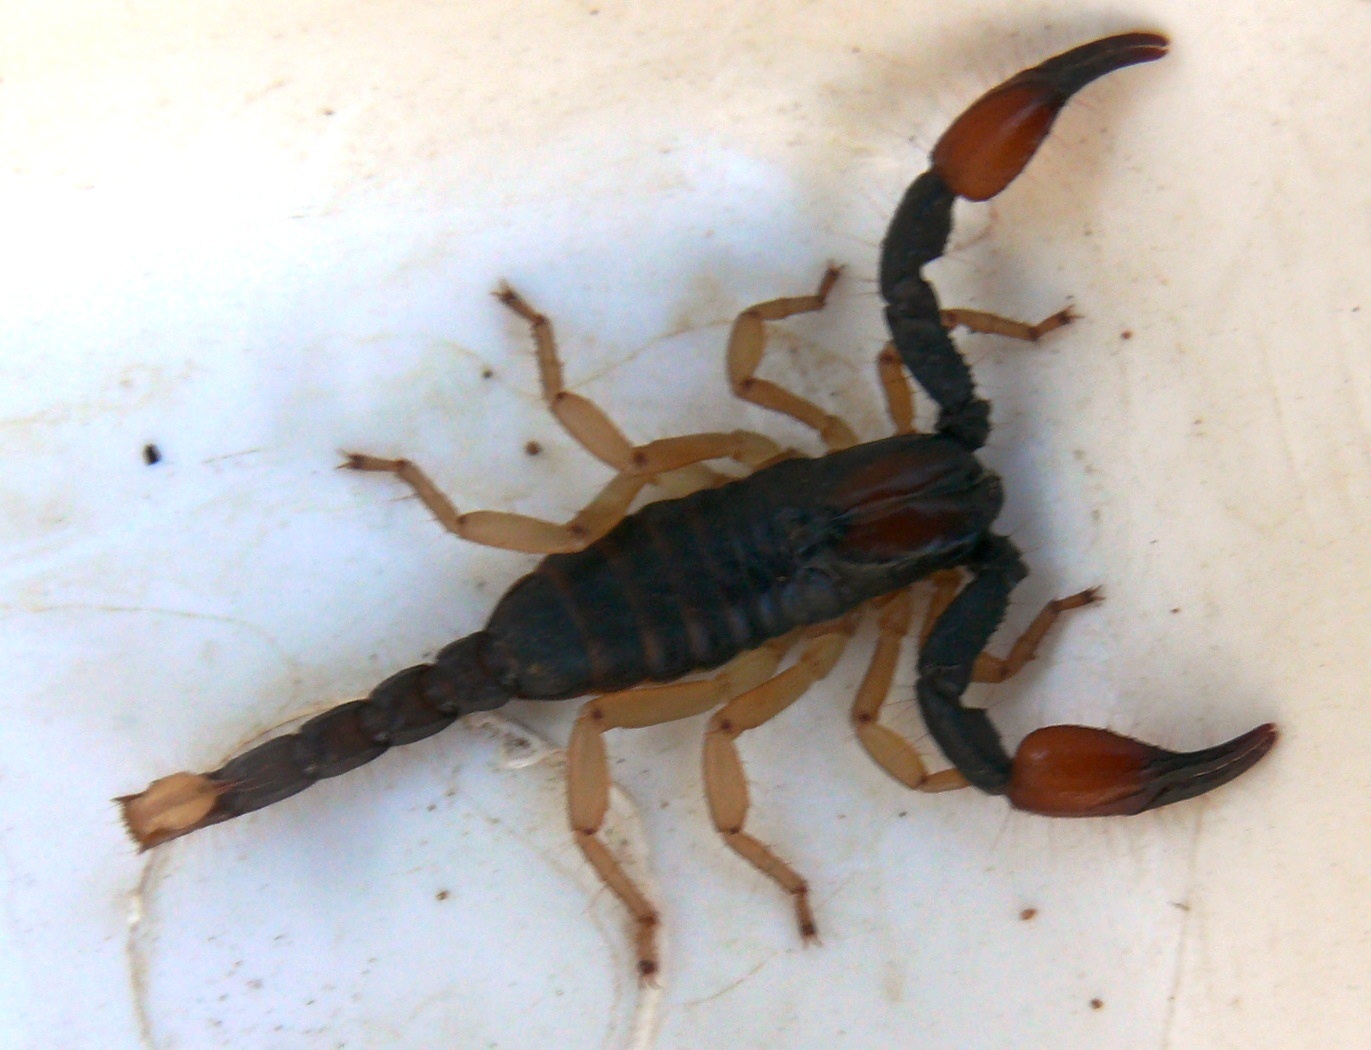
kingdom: Animalia
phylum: Arthropoda
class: Arachnida
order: Scorpiones
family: Scorpionidae
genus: Opistophthalmus
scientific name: Opistophthalmus pallipes
